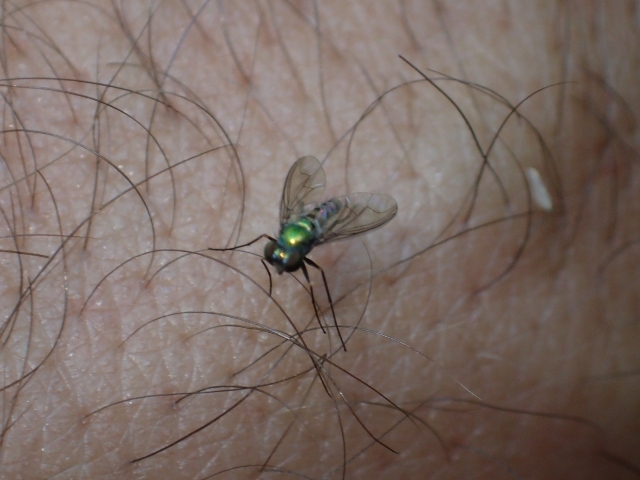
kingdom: Animalia
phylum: Arthropoda
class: Insecta
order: Diptera
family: Dolichopodidae
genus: Parentia
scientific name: Parentia mobile
